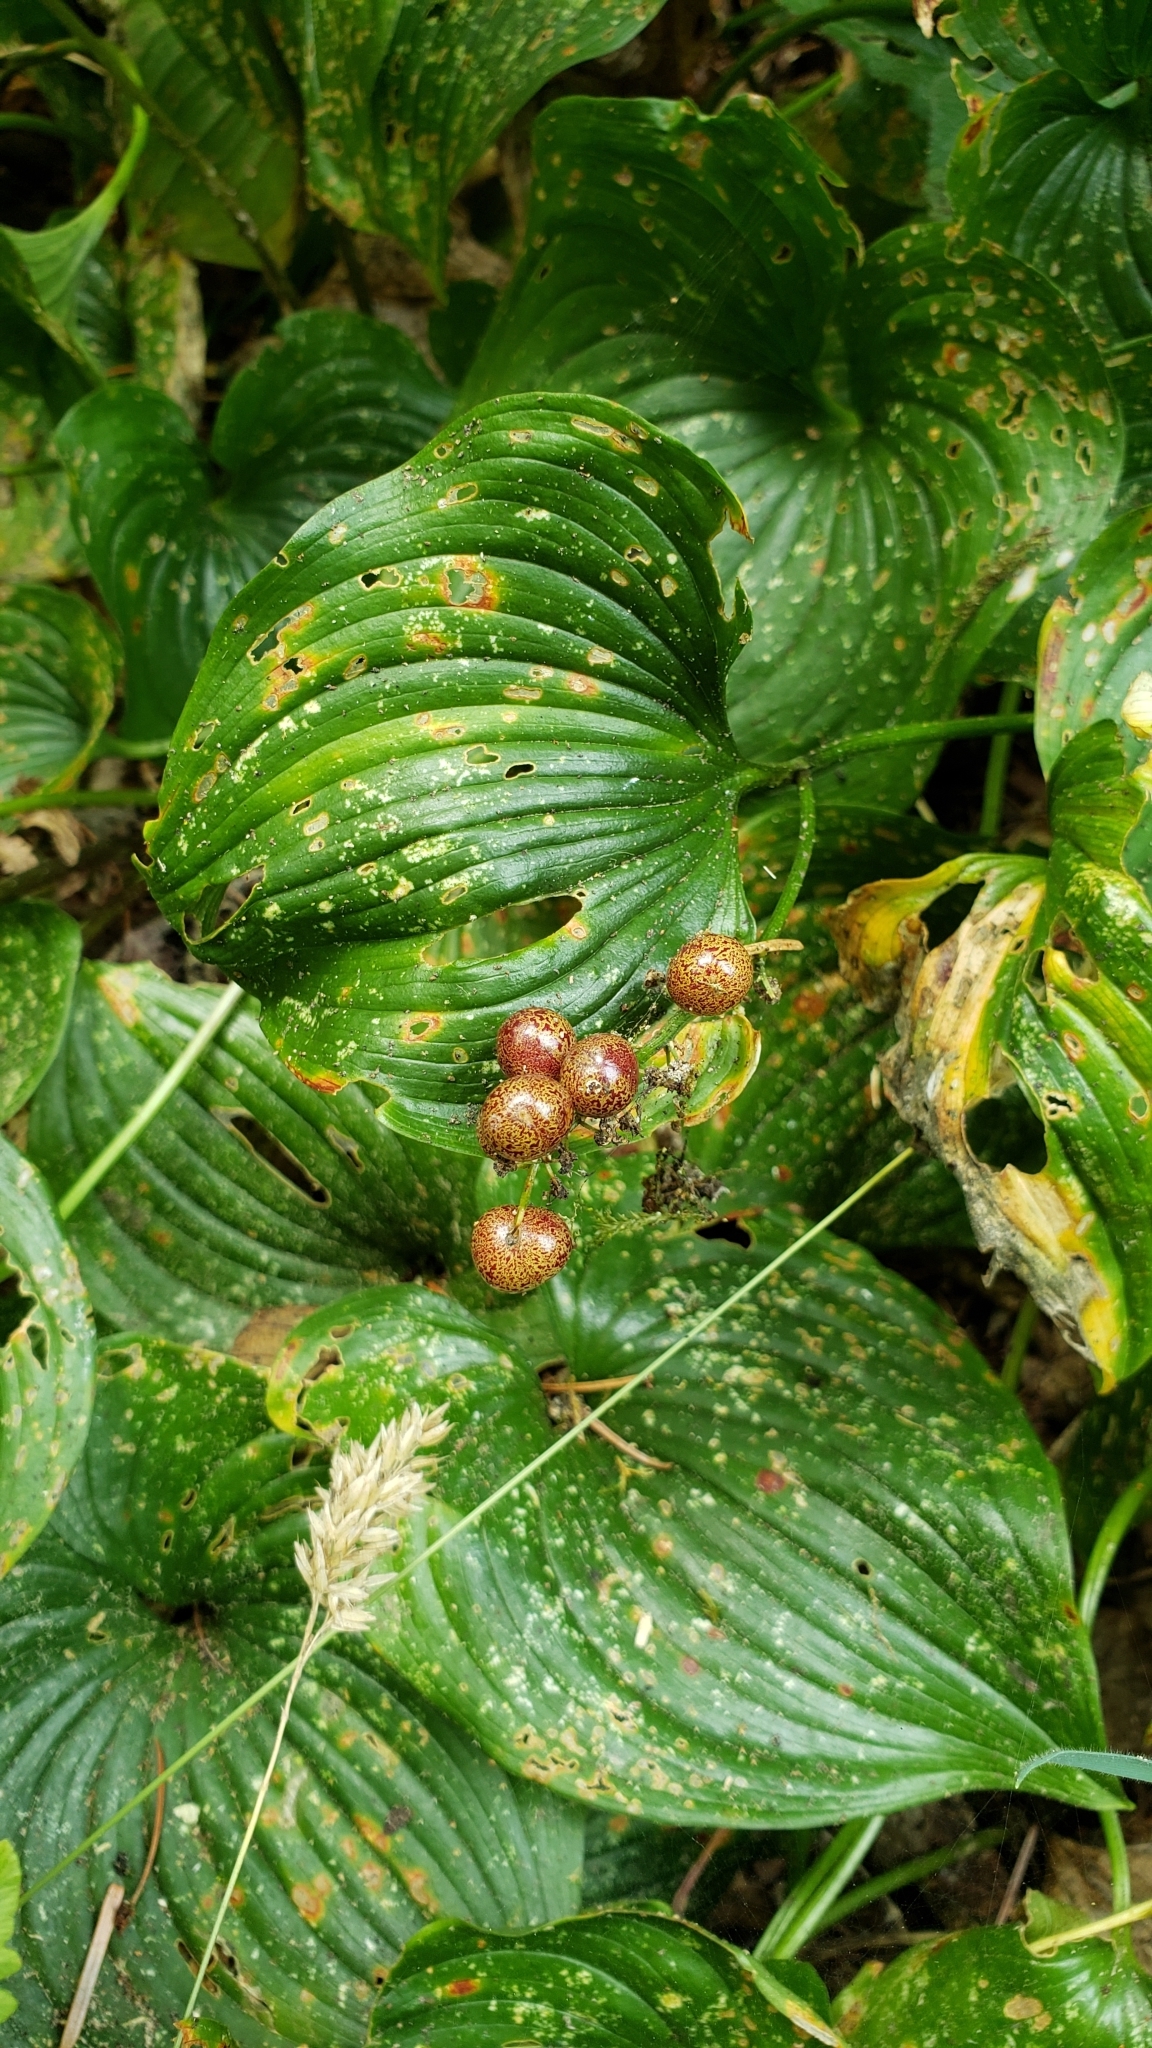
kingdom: Plantae
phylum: Tracheophyta
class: Liliopsida
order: Asparagales
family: Asparagaceae
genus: Maianthemum
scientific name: Maianthemum dilatatum
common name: False lily-of-the-valley
